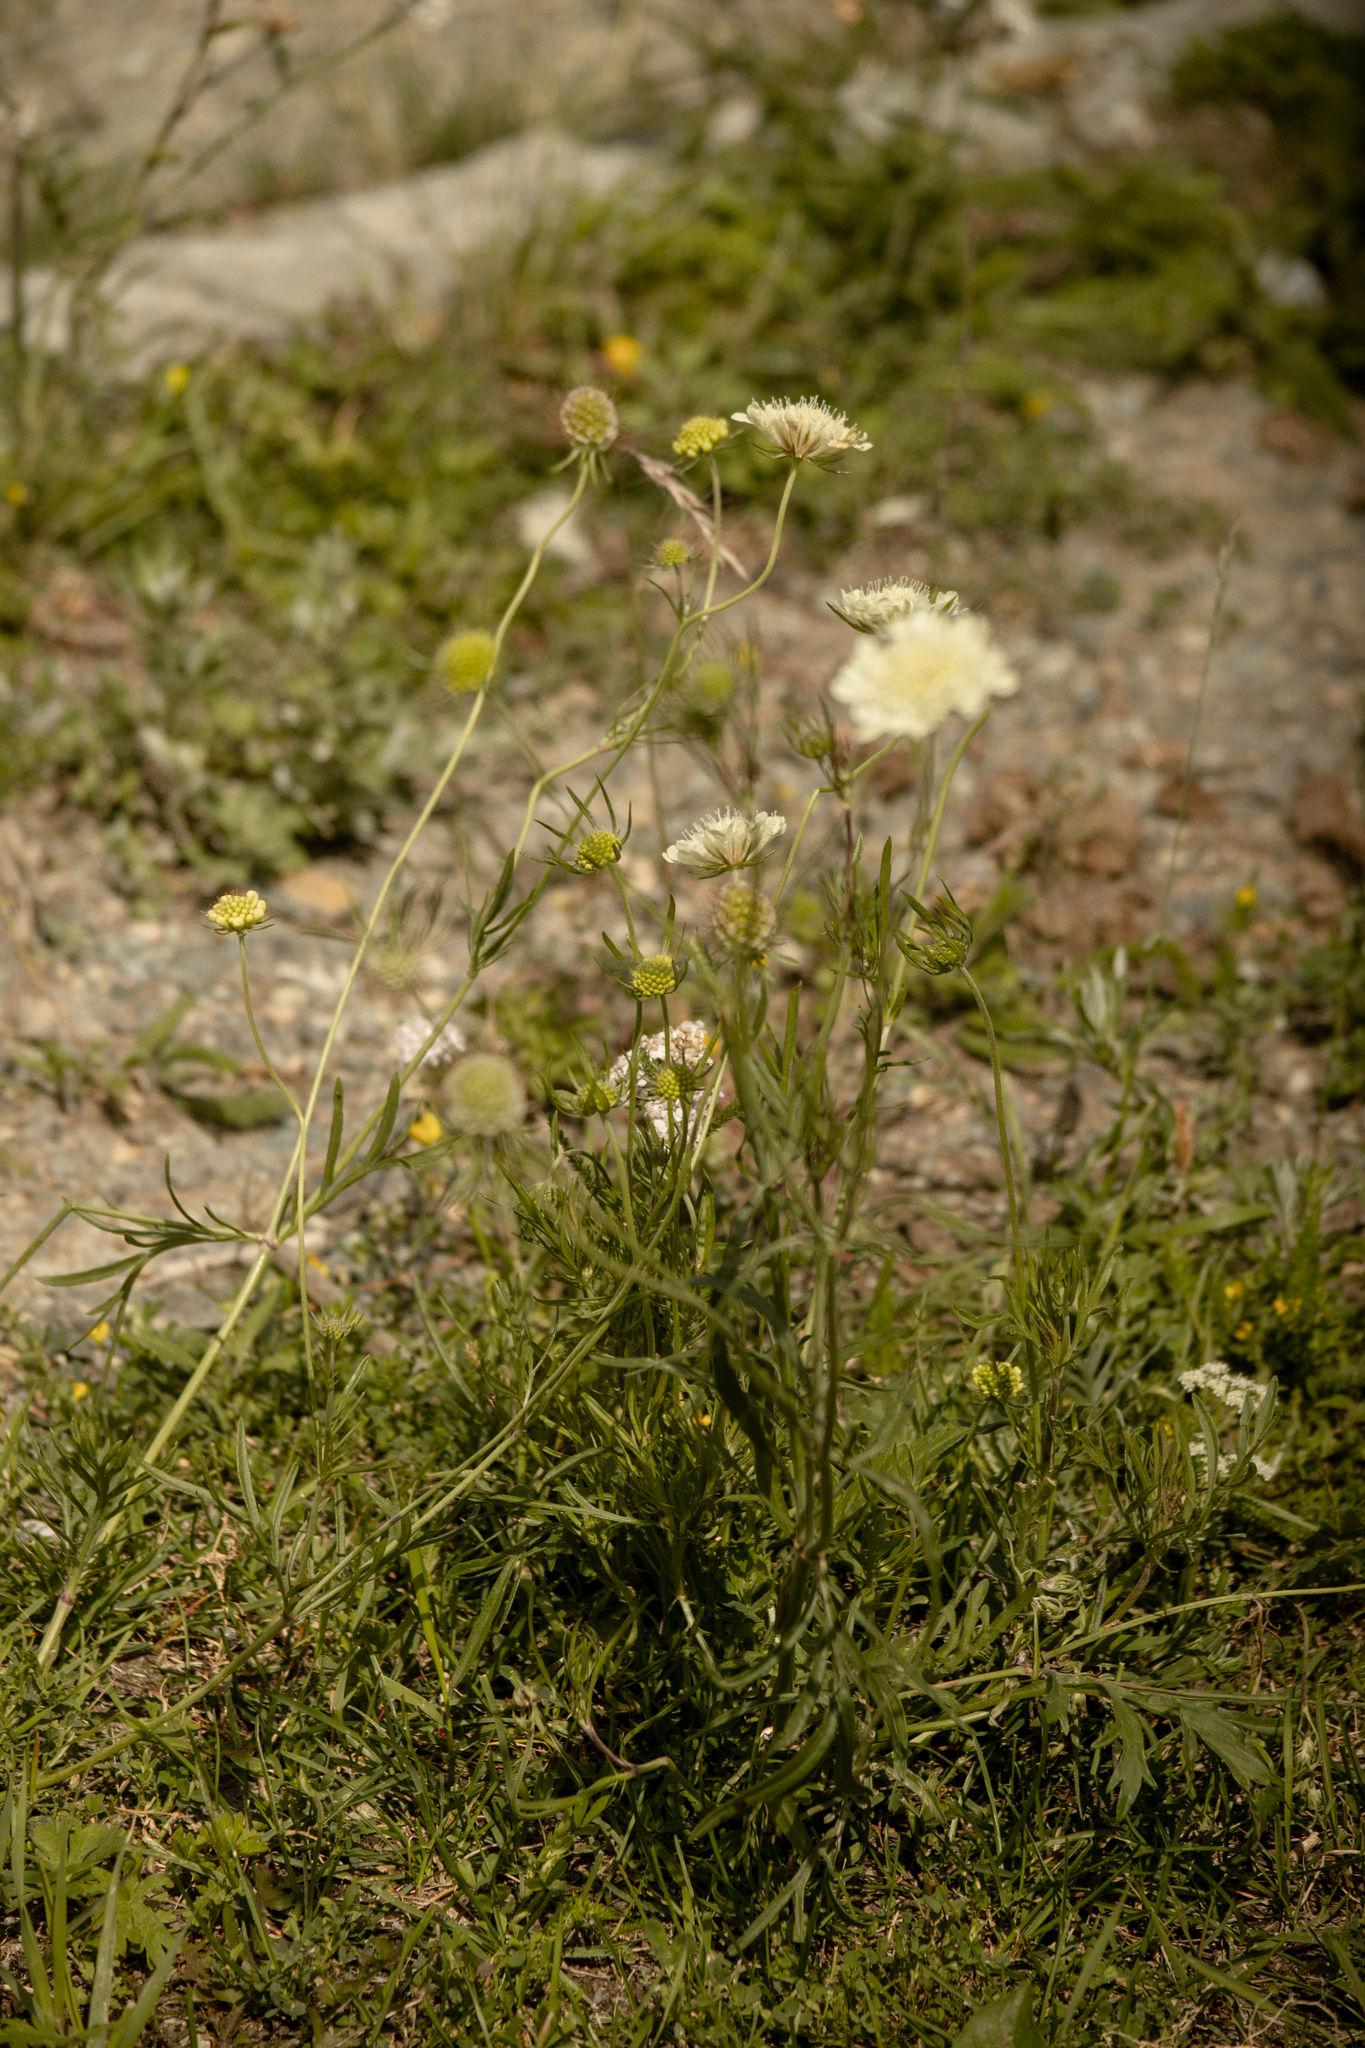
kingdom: Plantae
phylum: Tracheophyta
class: Magnoliopsida
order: Dipsacales
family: Caprifoliaceae
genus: Scabiosa
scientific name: Scabiosa ochroleuca
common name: Cream pincushions
